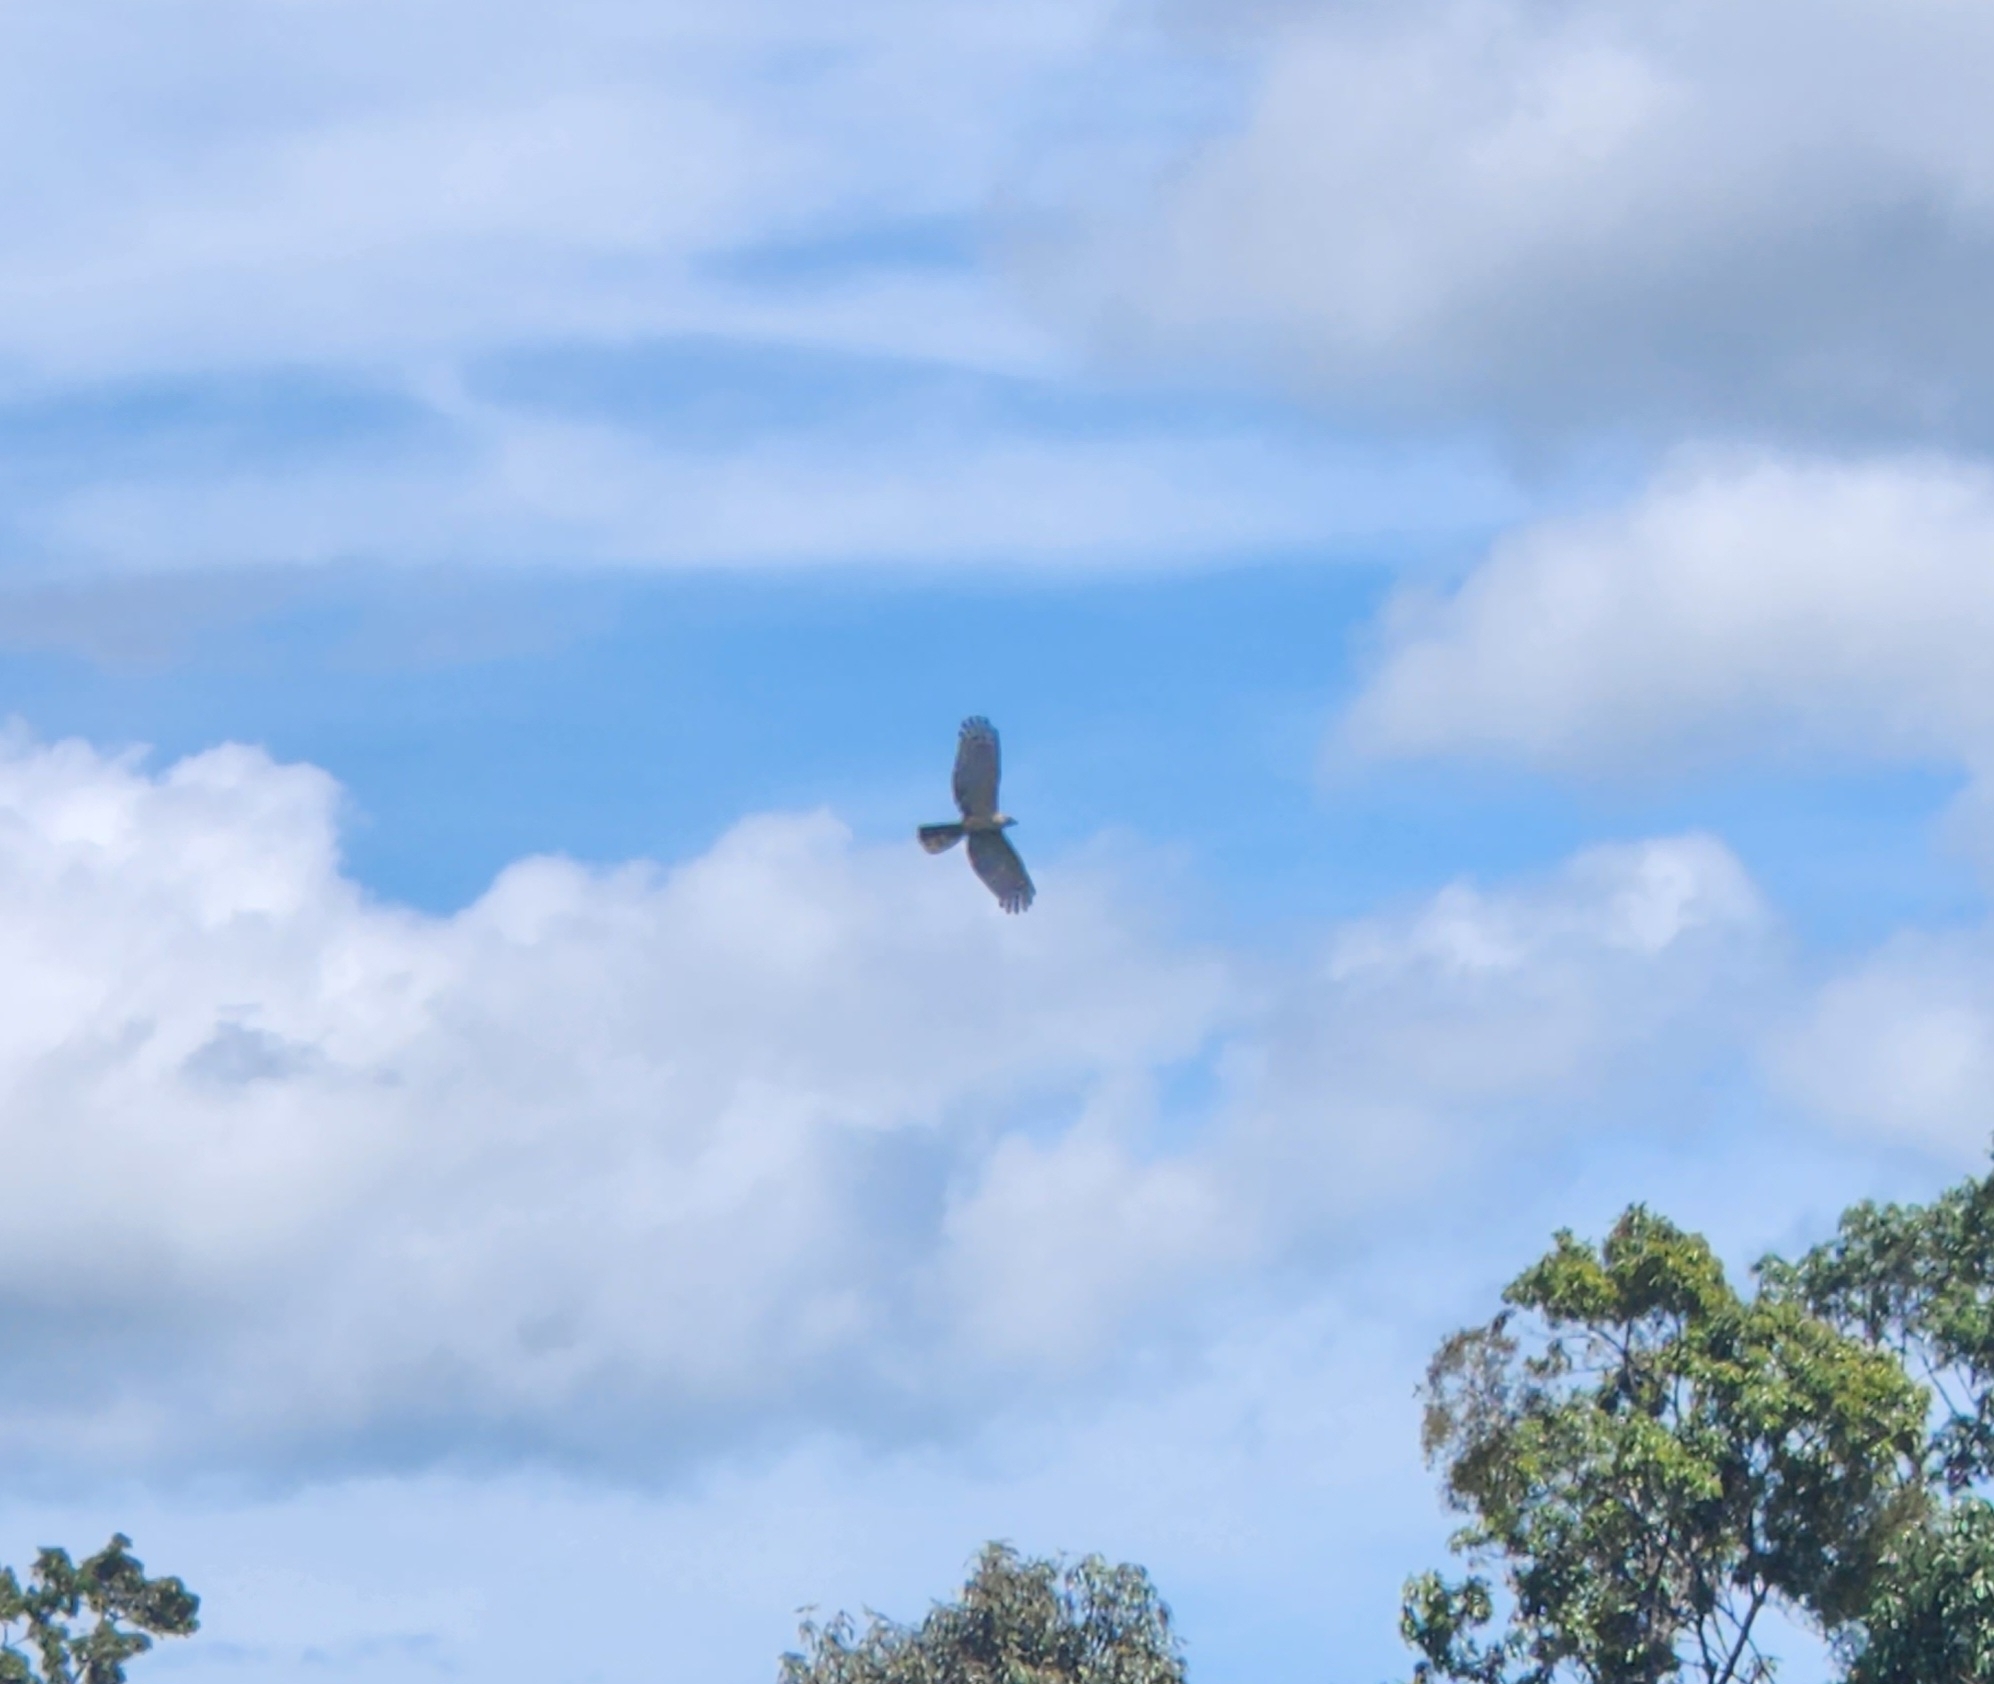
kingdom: Animalia
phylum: Chordata
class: Aves
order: Accipitriformes
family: Accipitridae
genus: Aviceda
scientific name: Aviceda subcristata
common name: Pacific baza
